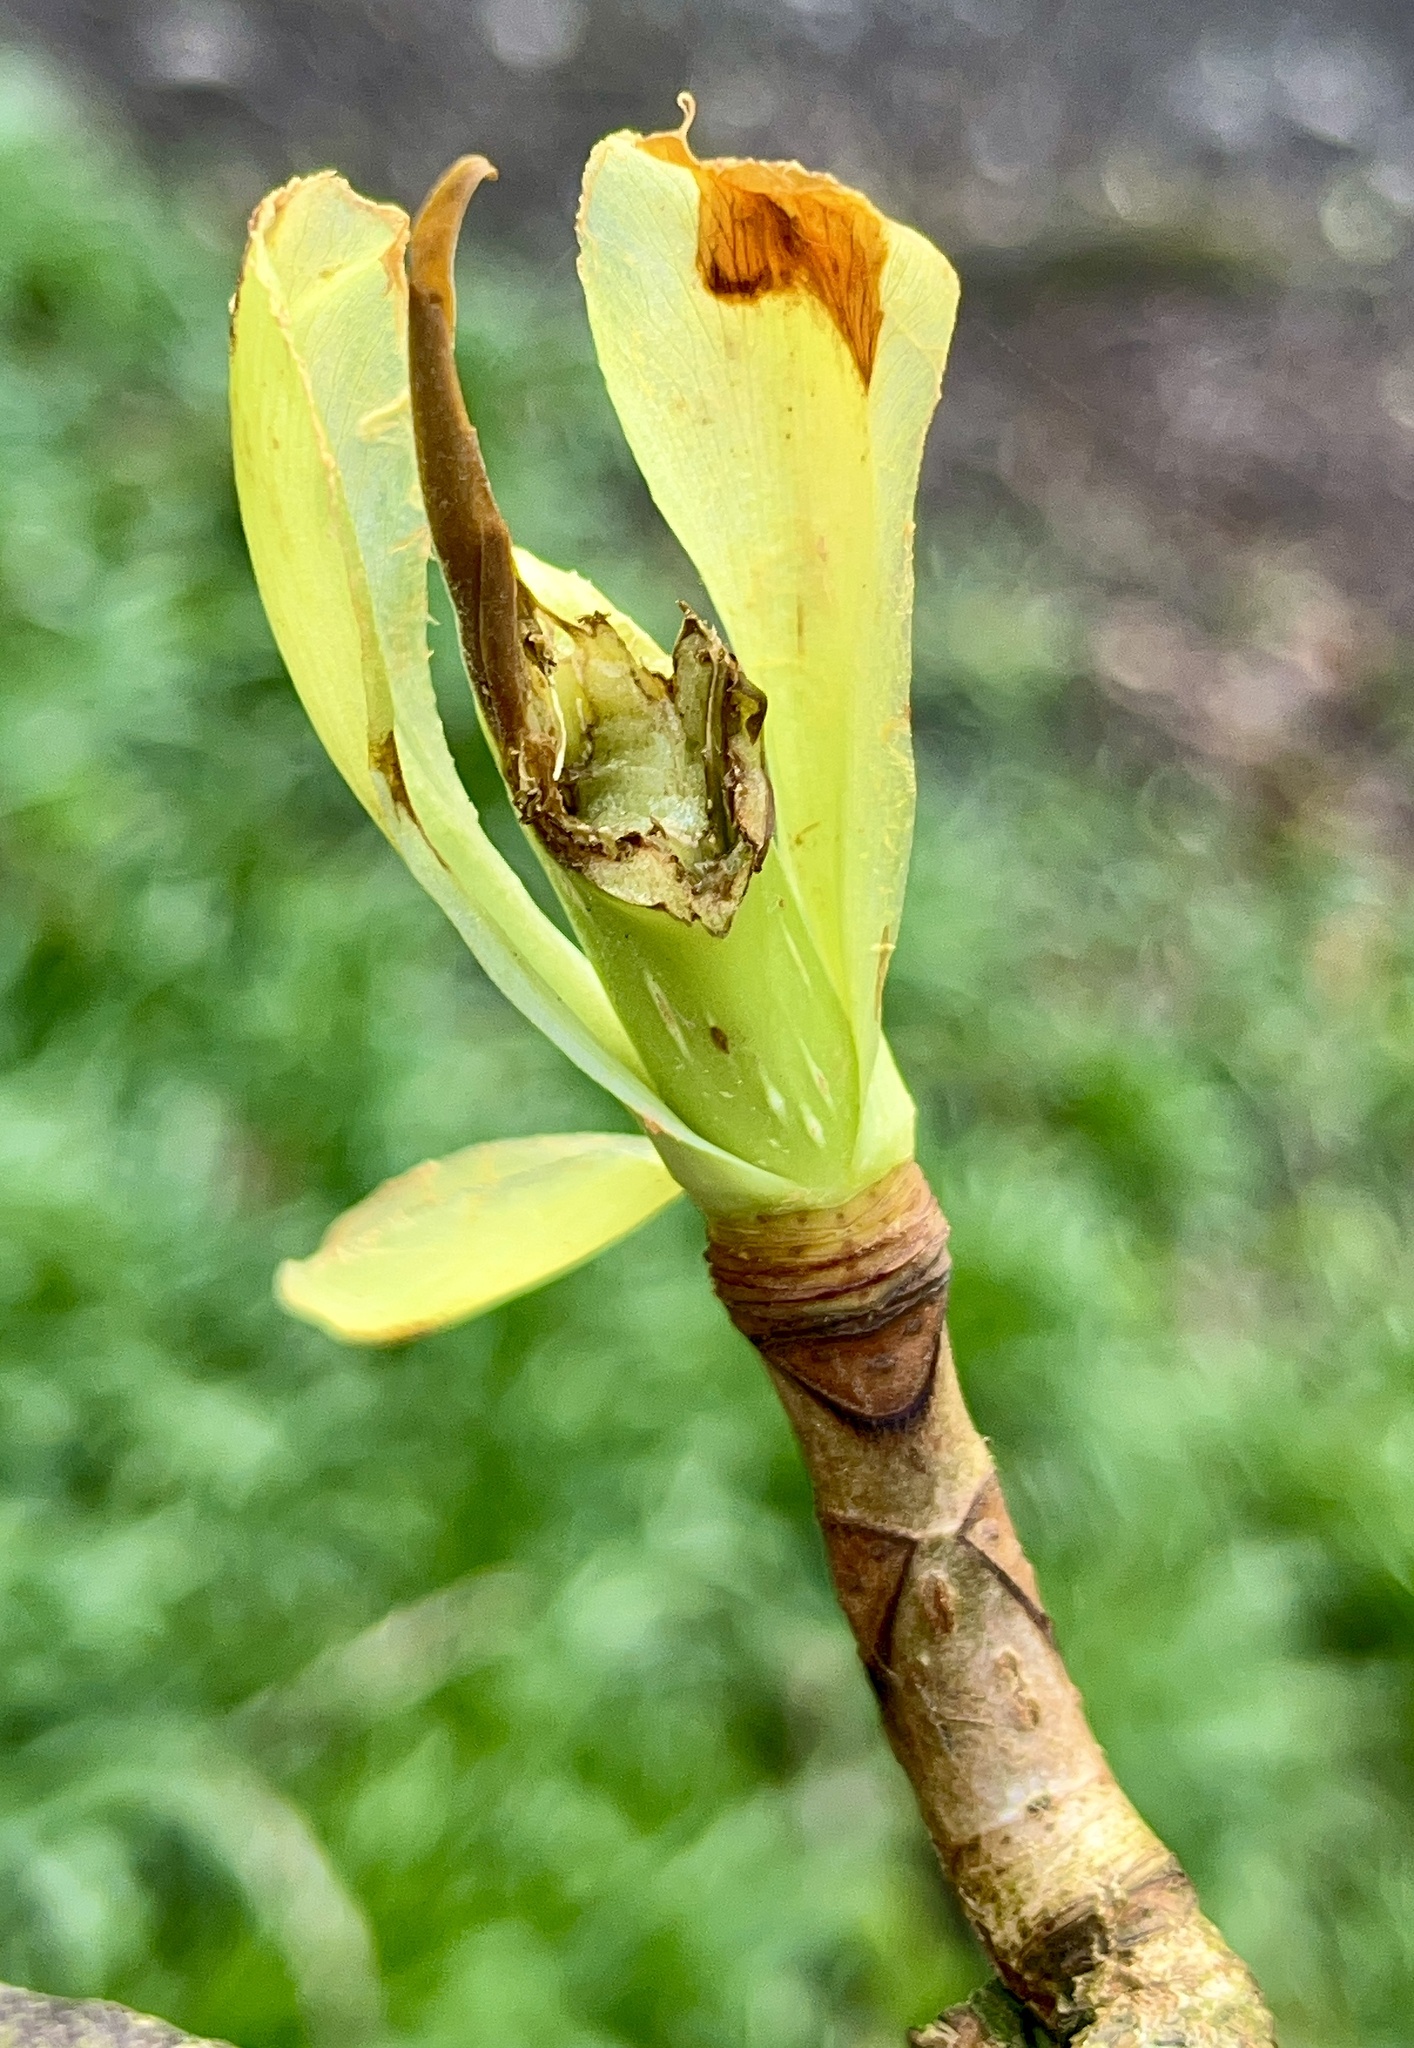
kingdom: Plantae
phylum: Tracheophyta
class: Magnoliopsida
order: Sapindales
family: Sapindaceae
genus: Aesculus
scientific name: Aesculus hippocastanum
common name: Horse-chestnut
